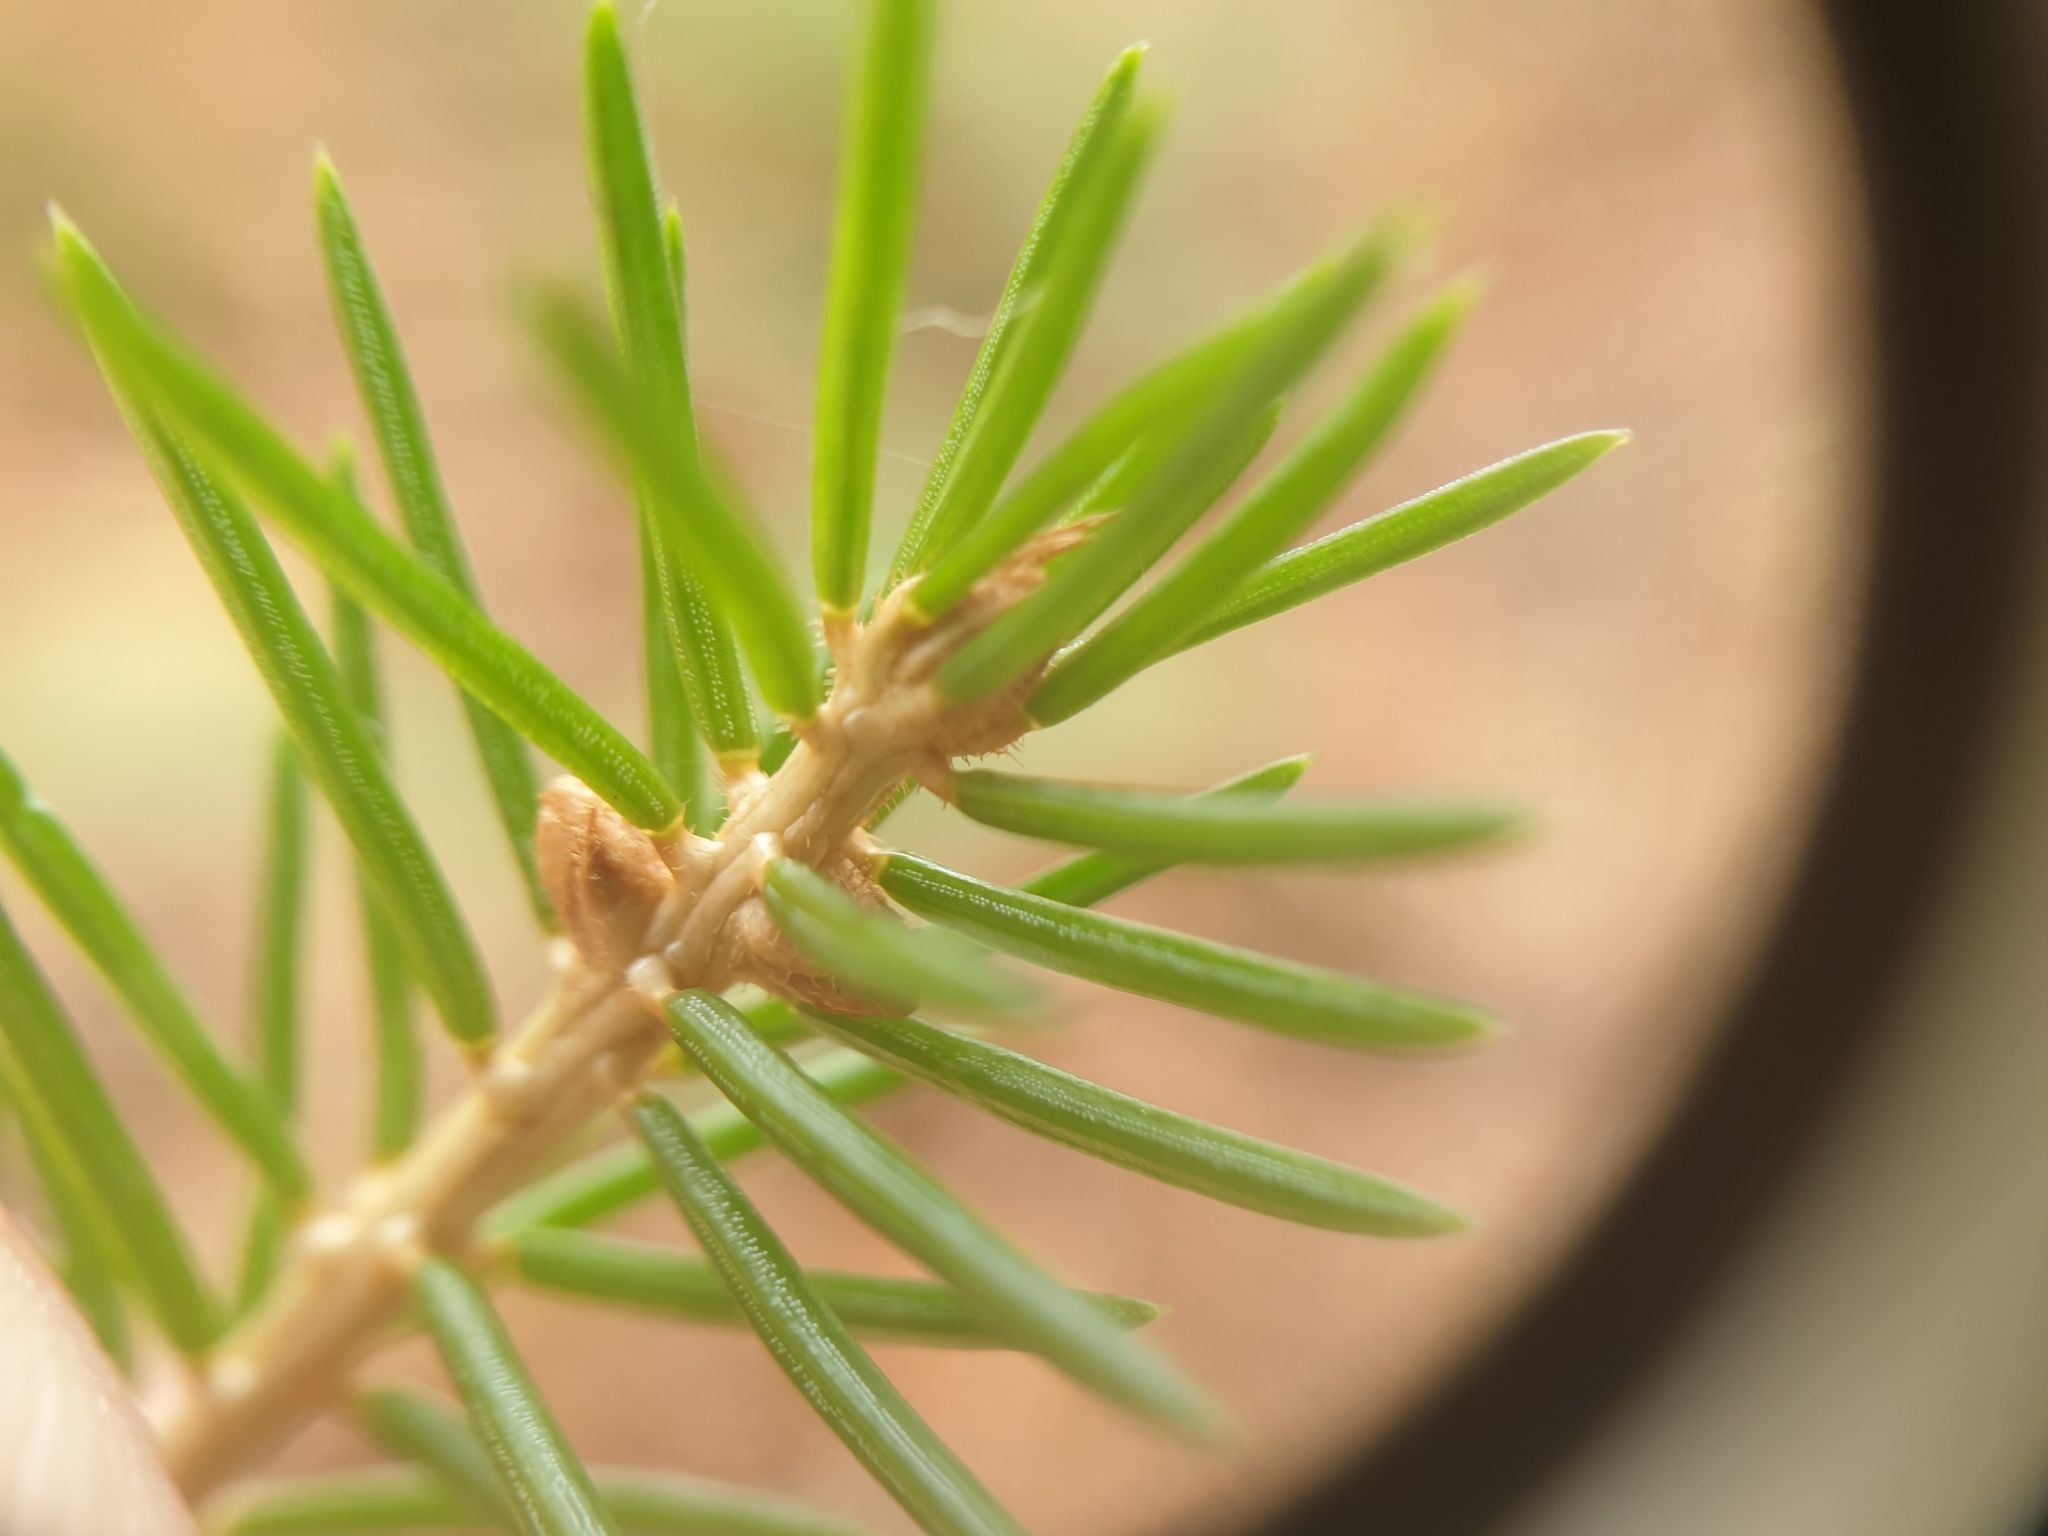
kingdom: Plantae
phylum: Tracheophyta
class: Pinopsida
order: Pinales
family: Pinaceae
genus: Picea
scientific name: Picea rubens
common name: Red spruce
